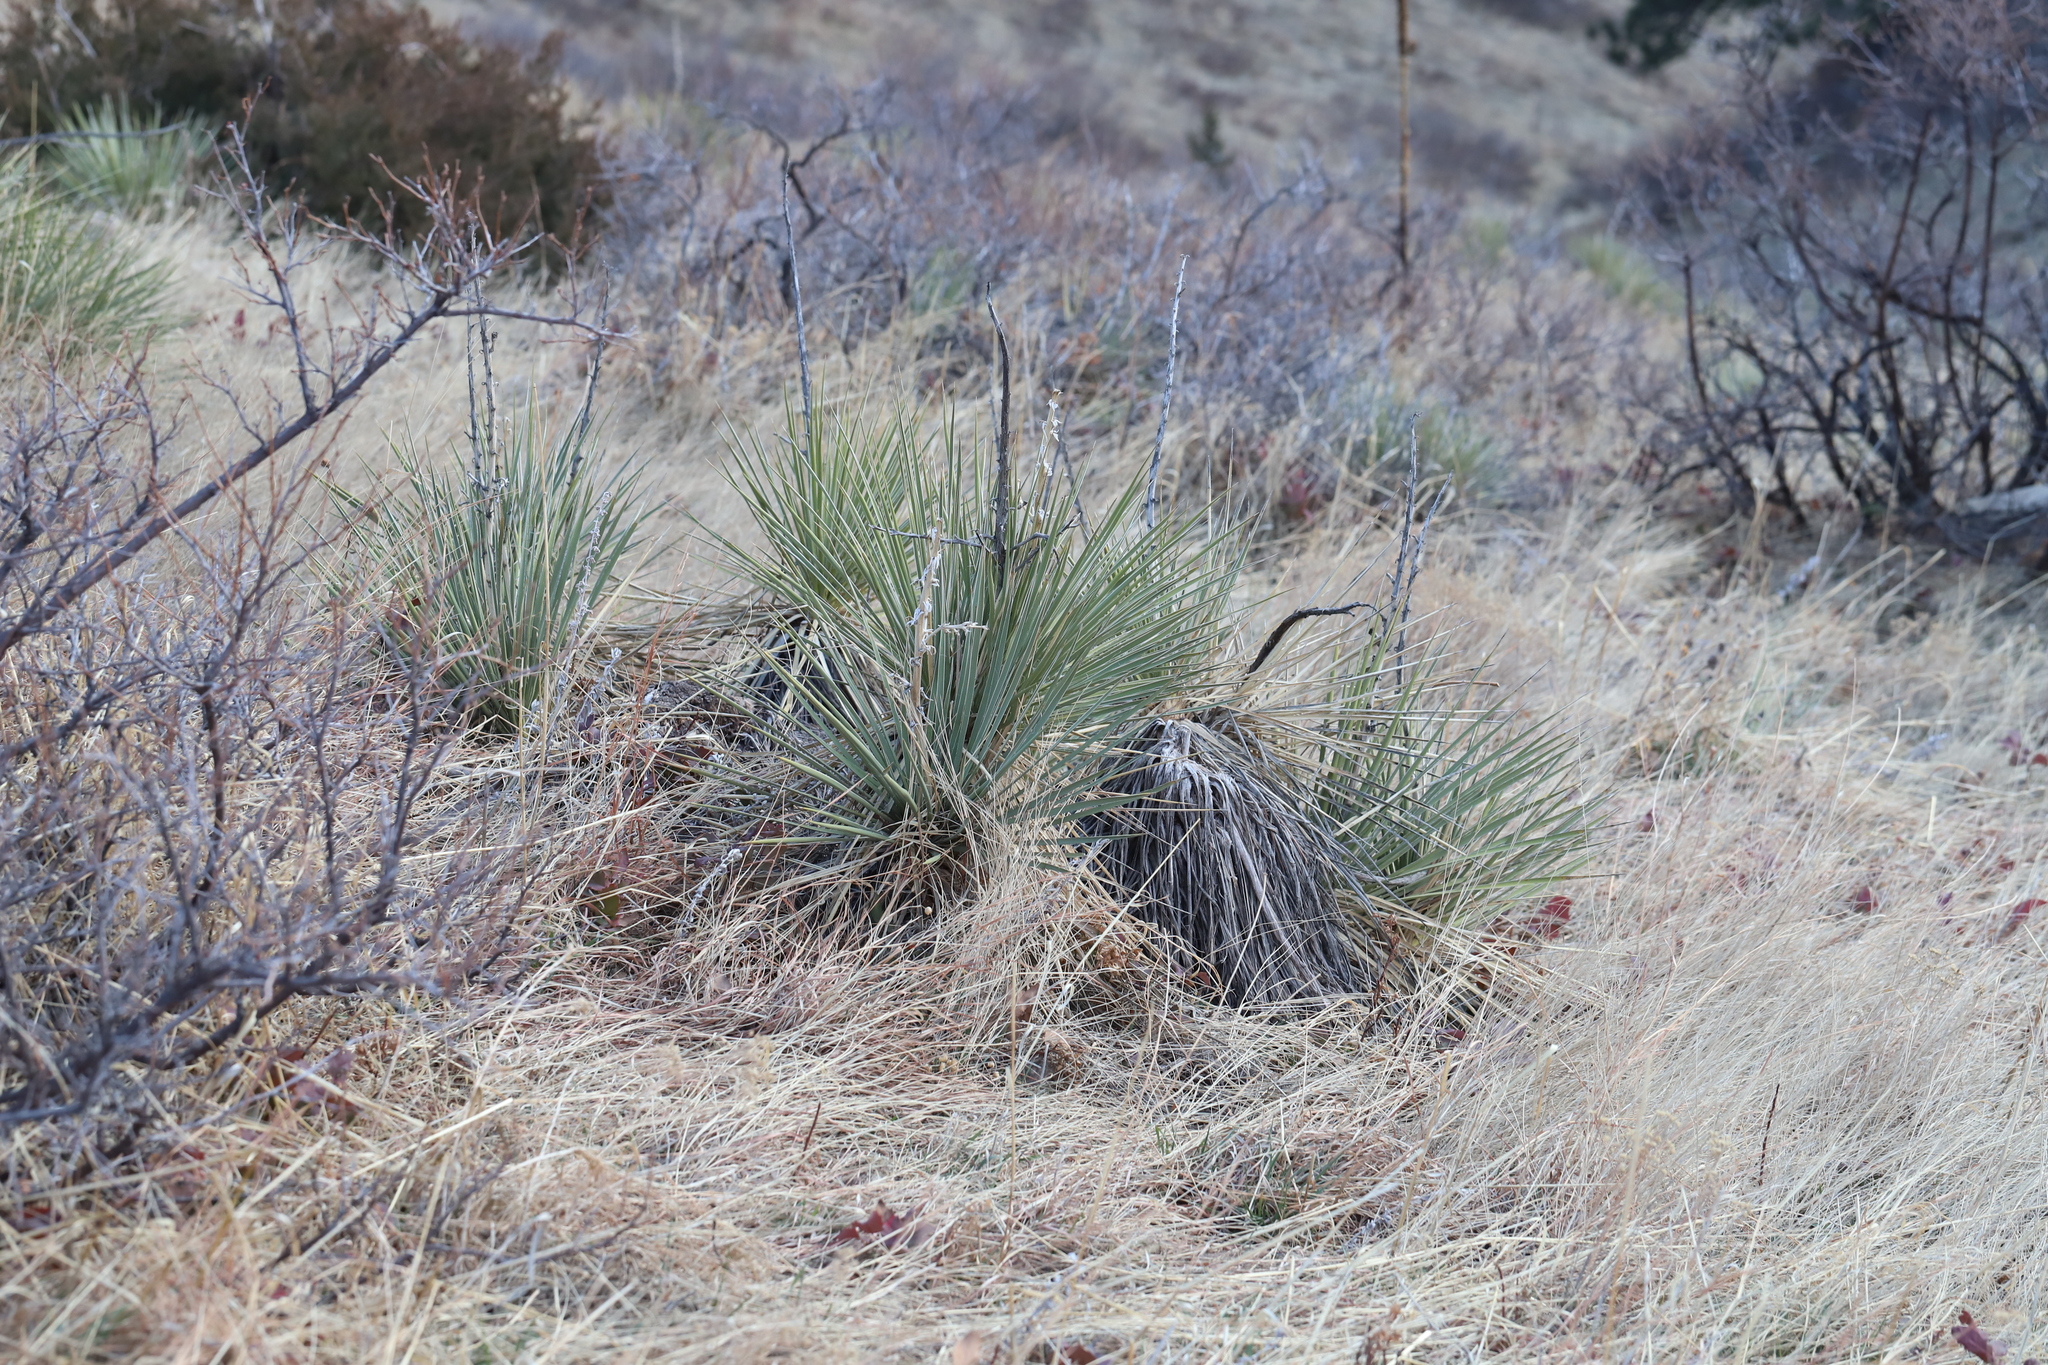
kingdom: Plantae
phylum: Tracheophyta
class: Liliopsida
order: Asparagales
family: Asparagaceae
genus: Yucca
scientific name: Yucca glauca
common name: Great plains yucca
